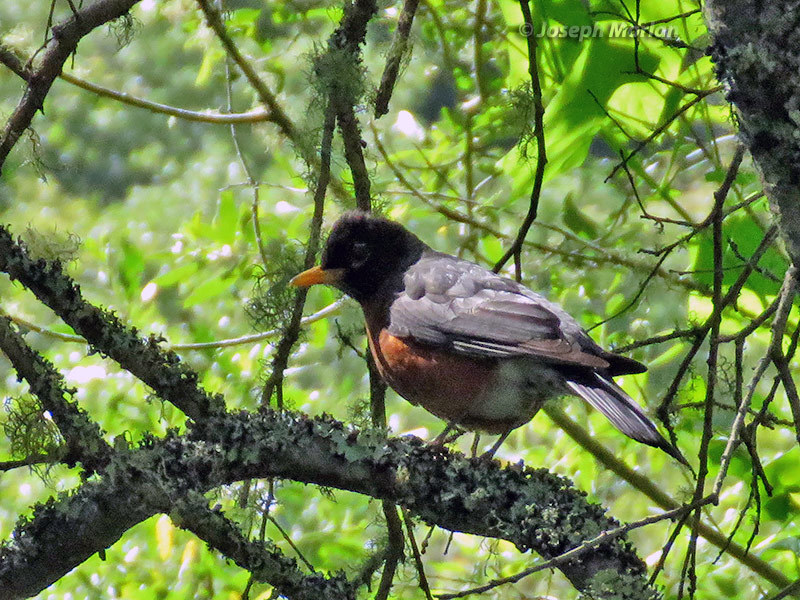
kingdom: Animalia
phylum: Chordata
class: Aves
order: Passeriformes
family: Turdidae
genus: Turdus
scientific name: Turdus migratorius
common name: American robin
